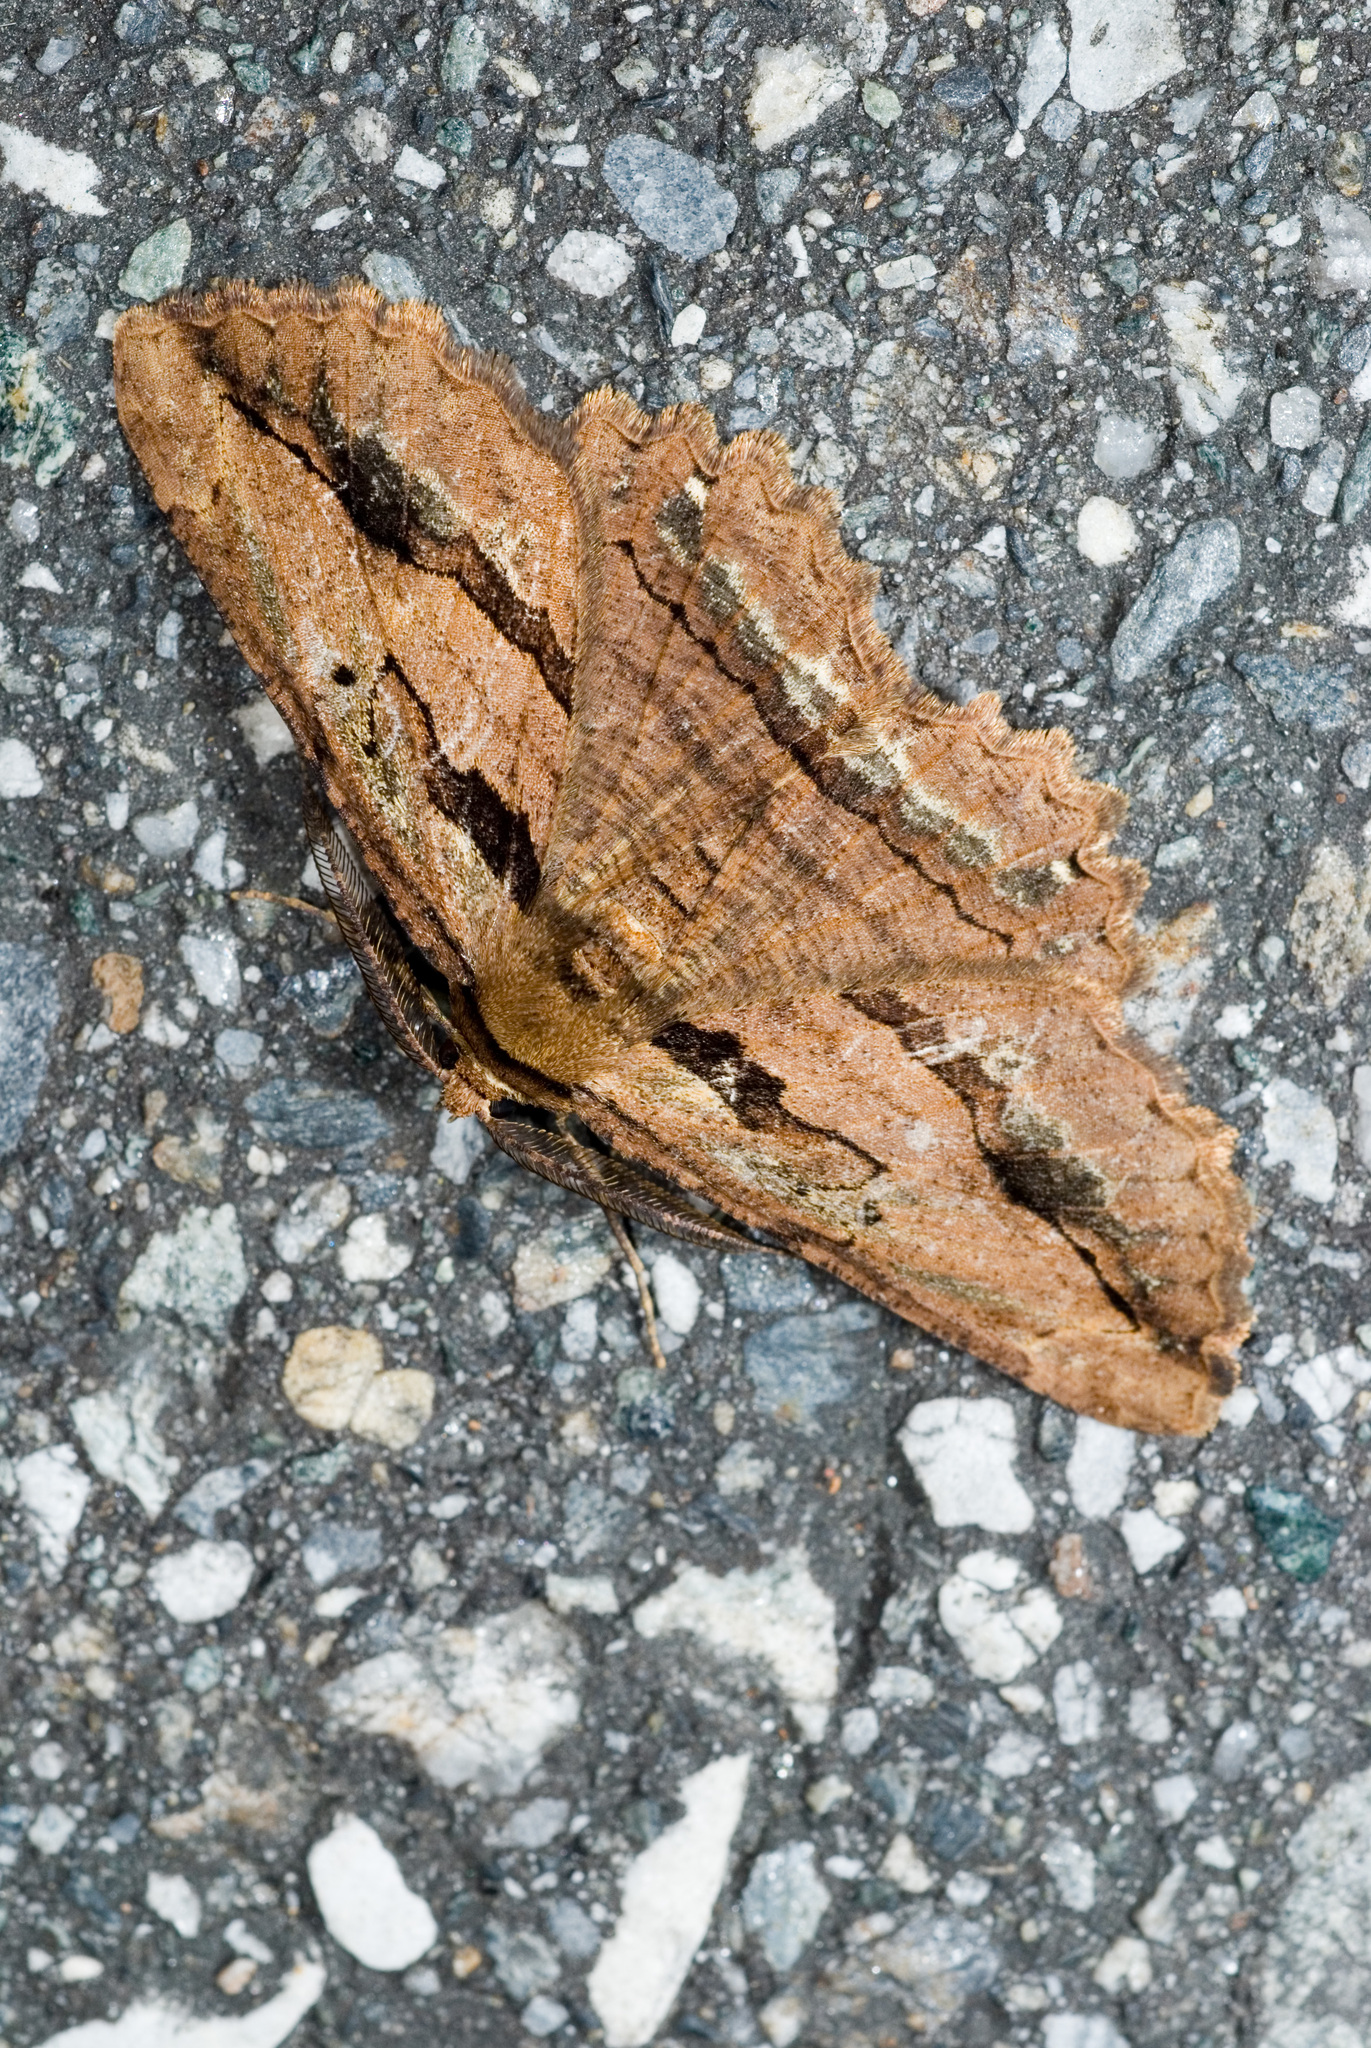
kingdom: Animalia
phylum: Arthropoda
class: Insecta
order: Lepidoptera
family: Geometridae
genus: Menophra
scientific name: Menophra nakajimai
